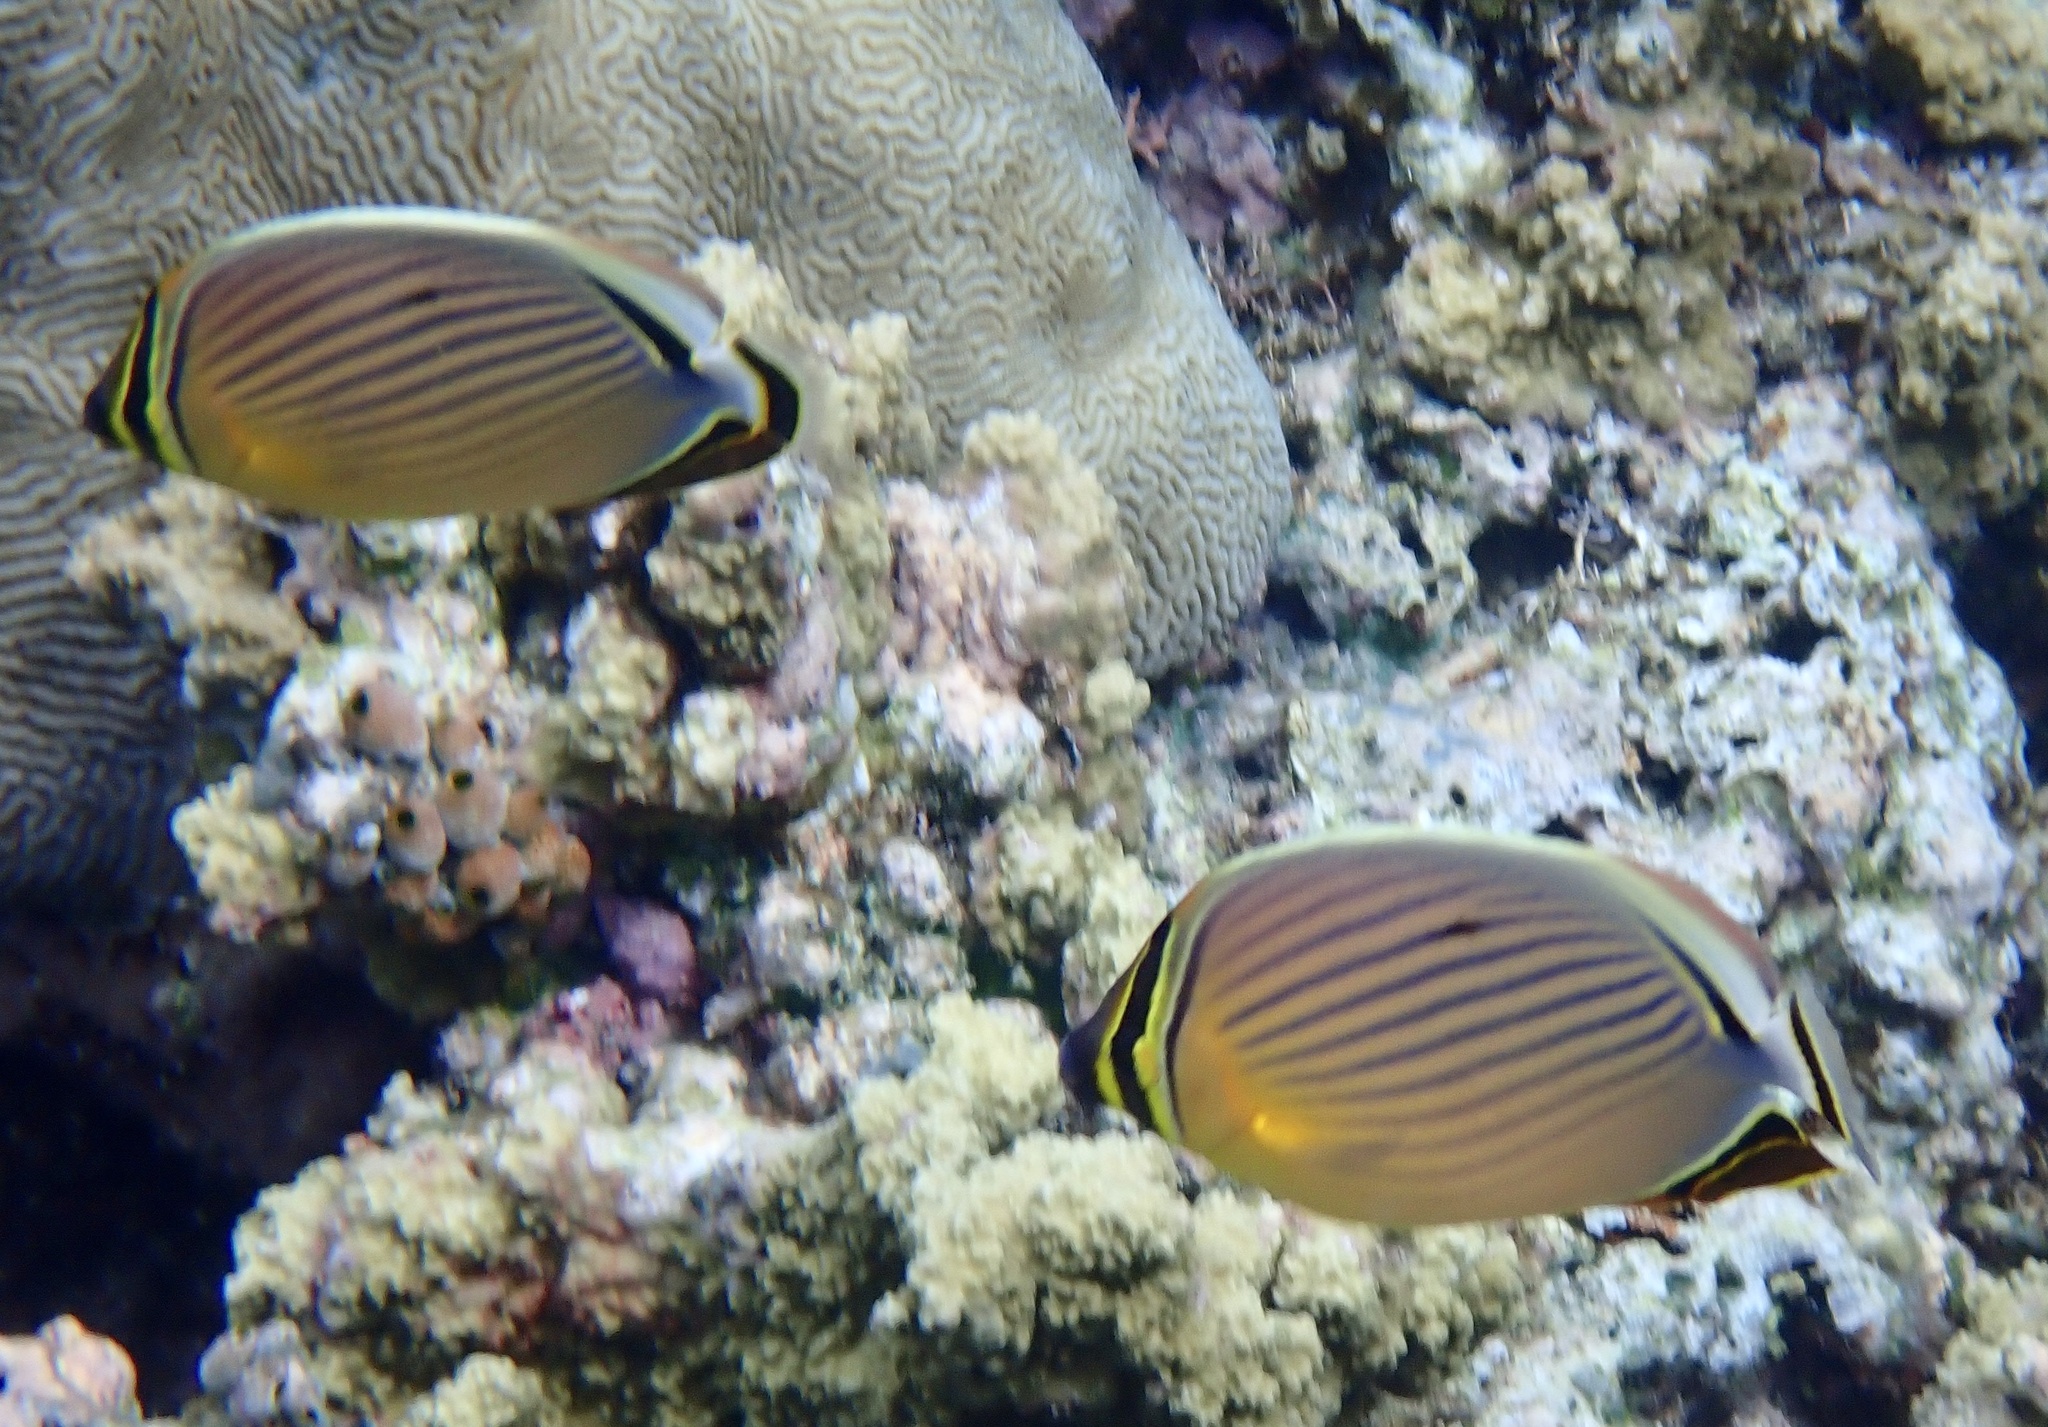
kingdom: Animalia
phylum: Chordata
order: Perciformes
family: Chaetodontidae
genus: Chaetodon
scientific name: Chaetodon lunulatus
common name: Redfin butterflyfish
